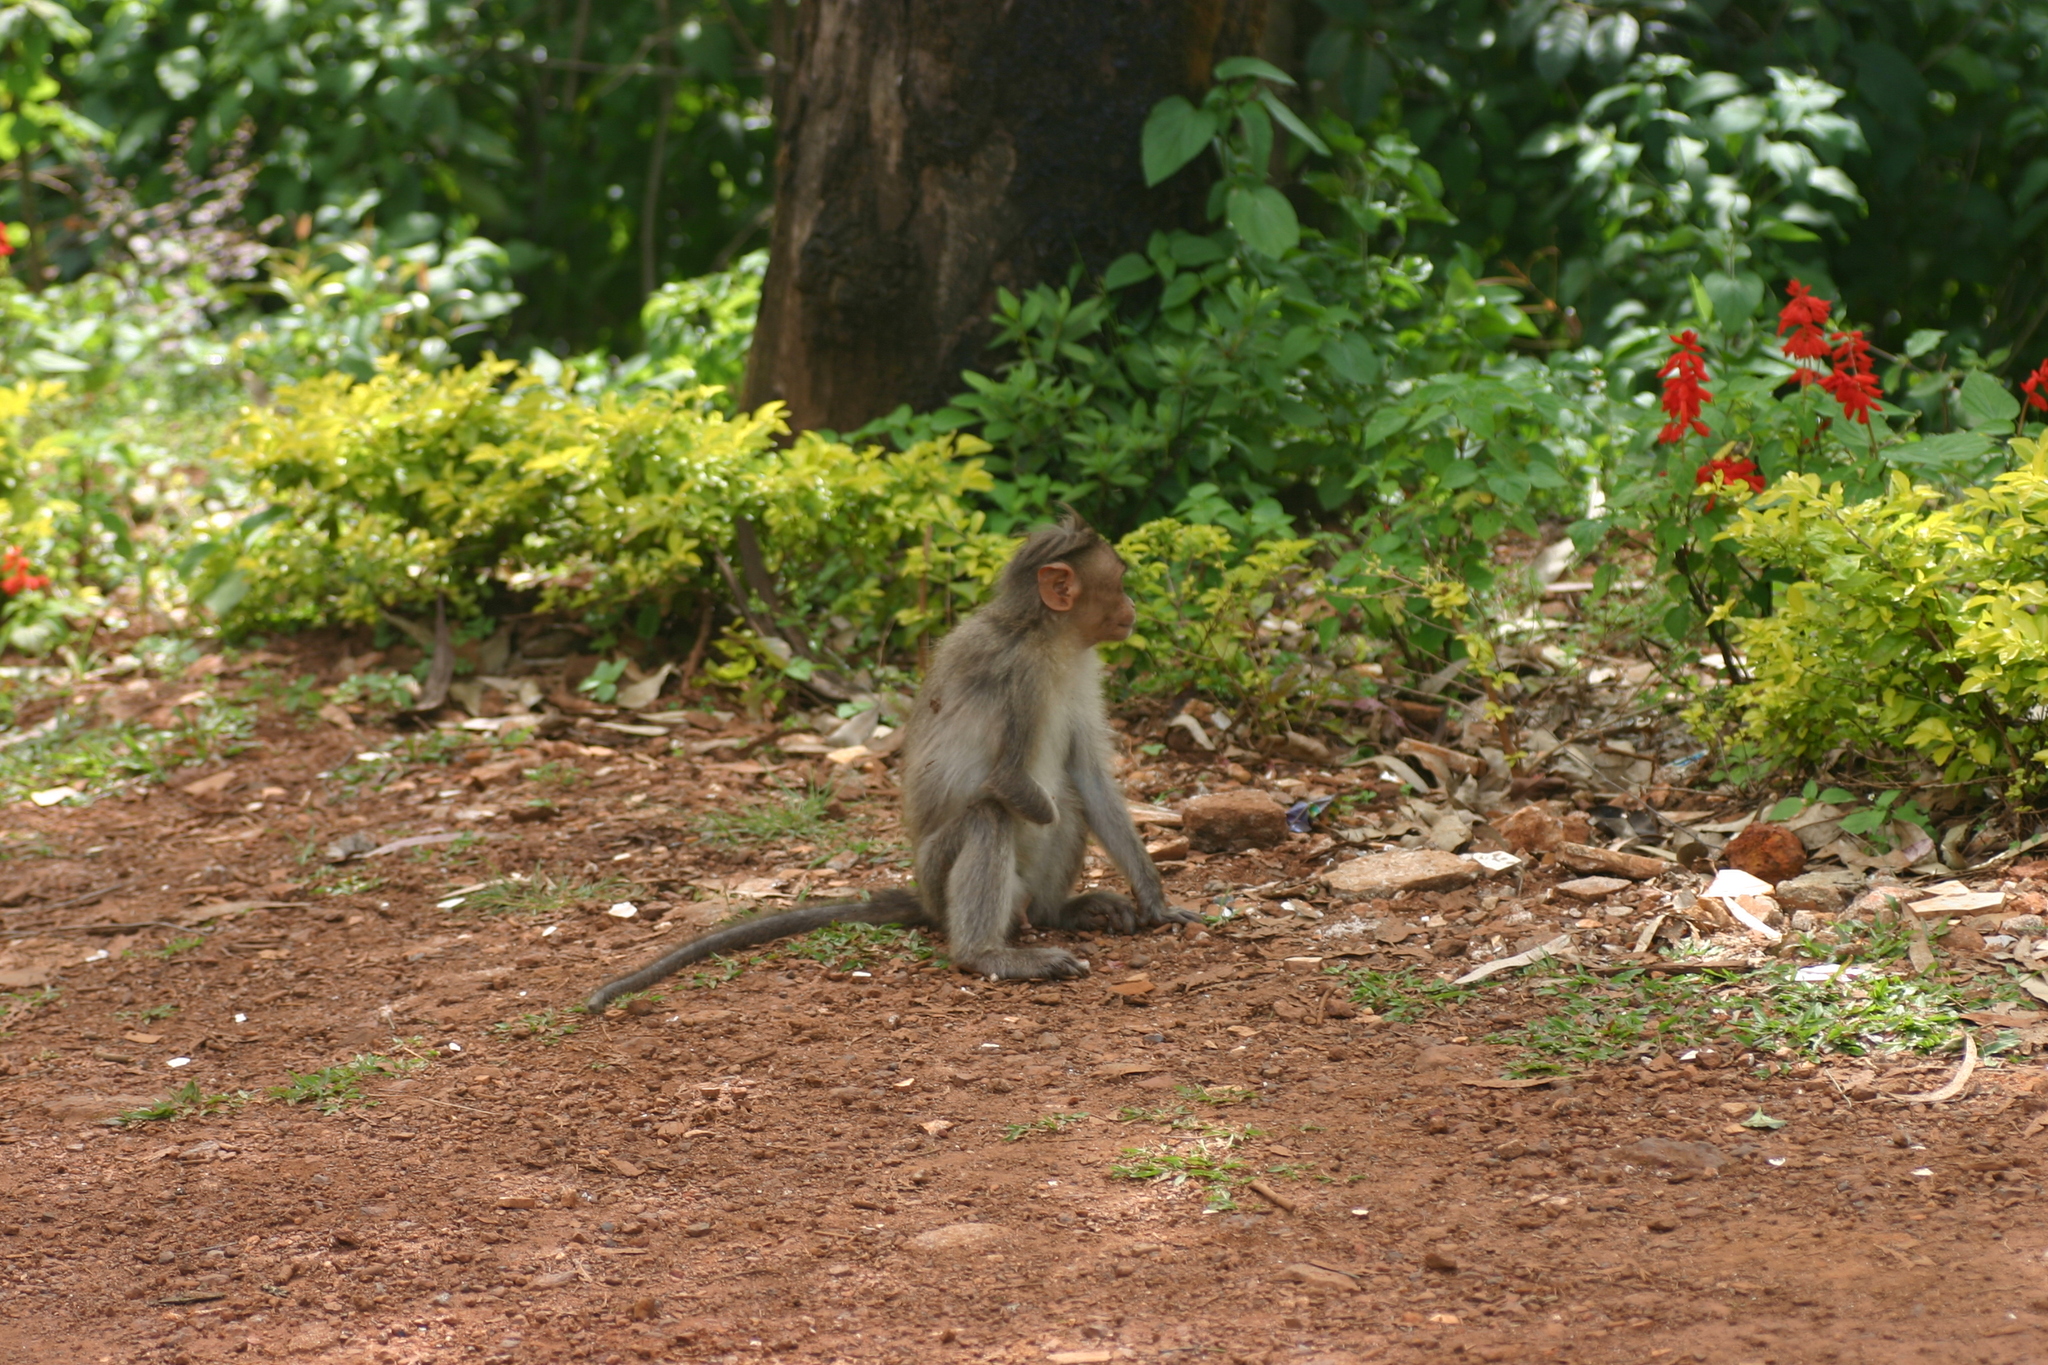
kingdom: Animalia
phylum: Chordata
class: Mammalia
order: Primates
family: Cercopithecidae
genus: Macaca
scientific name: Macaca radiata
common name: Bonnet macaque
